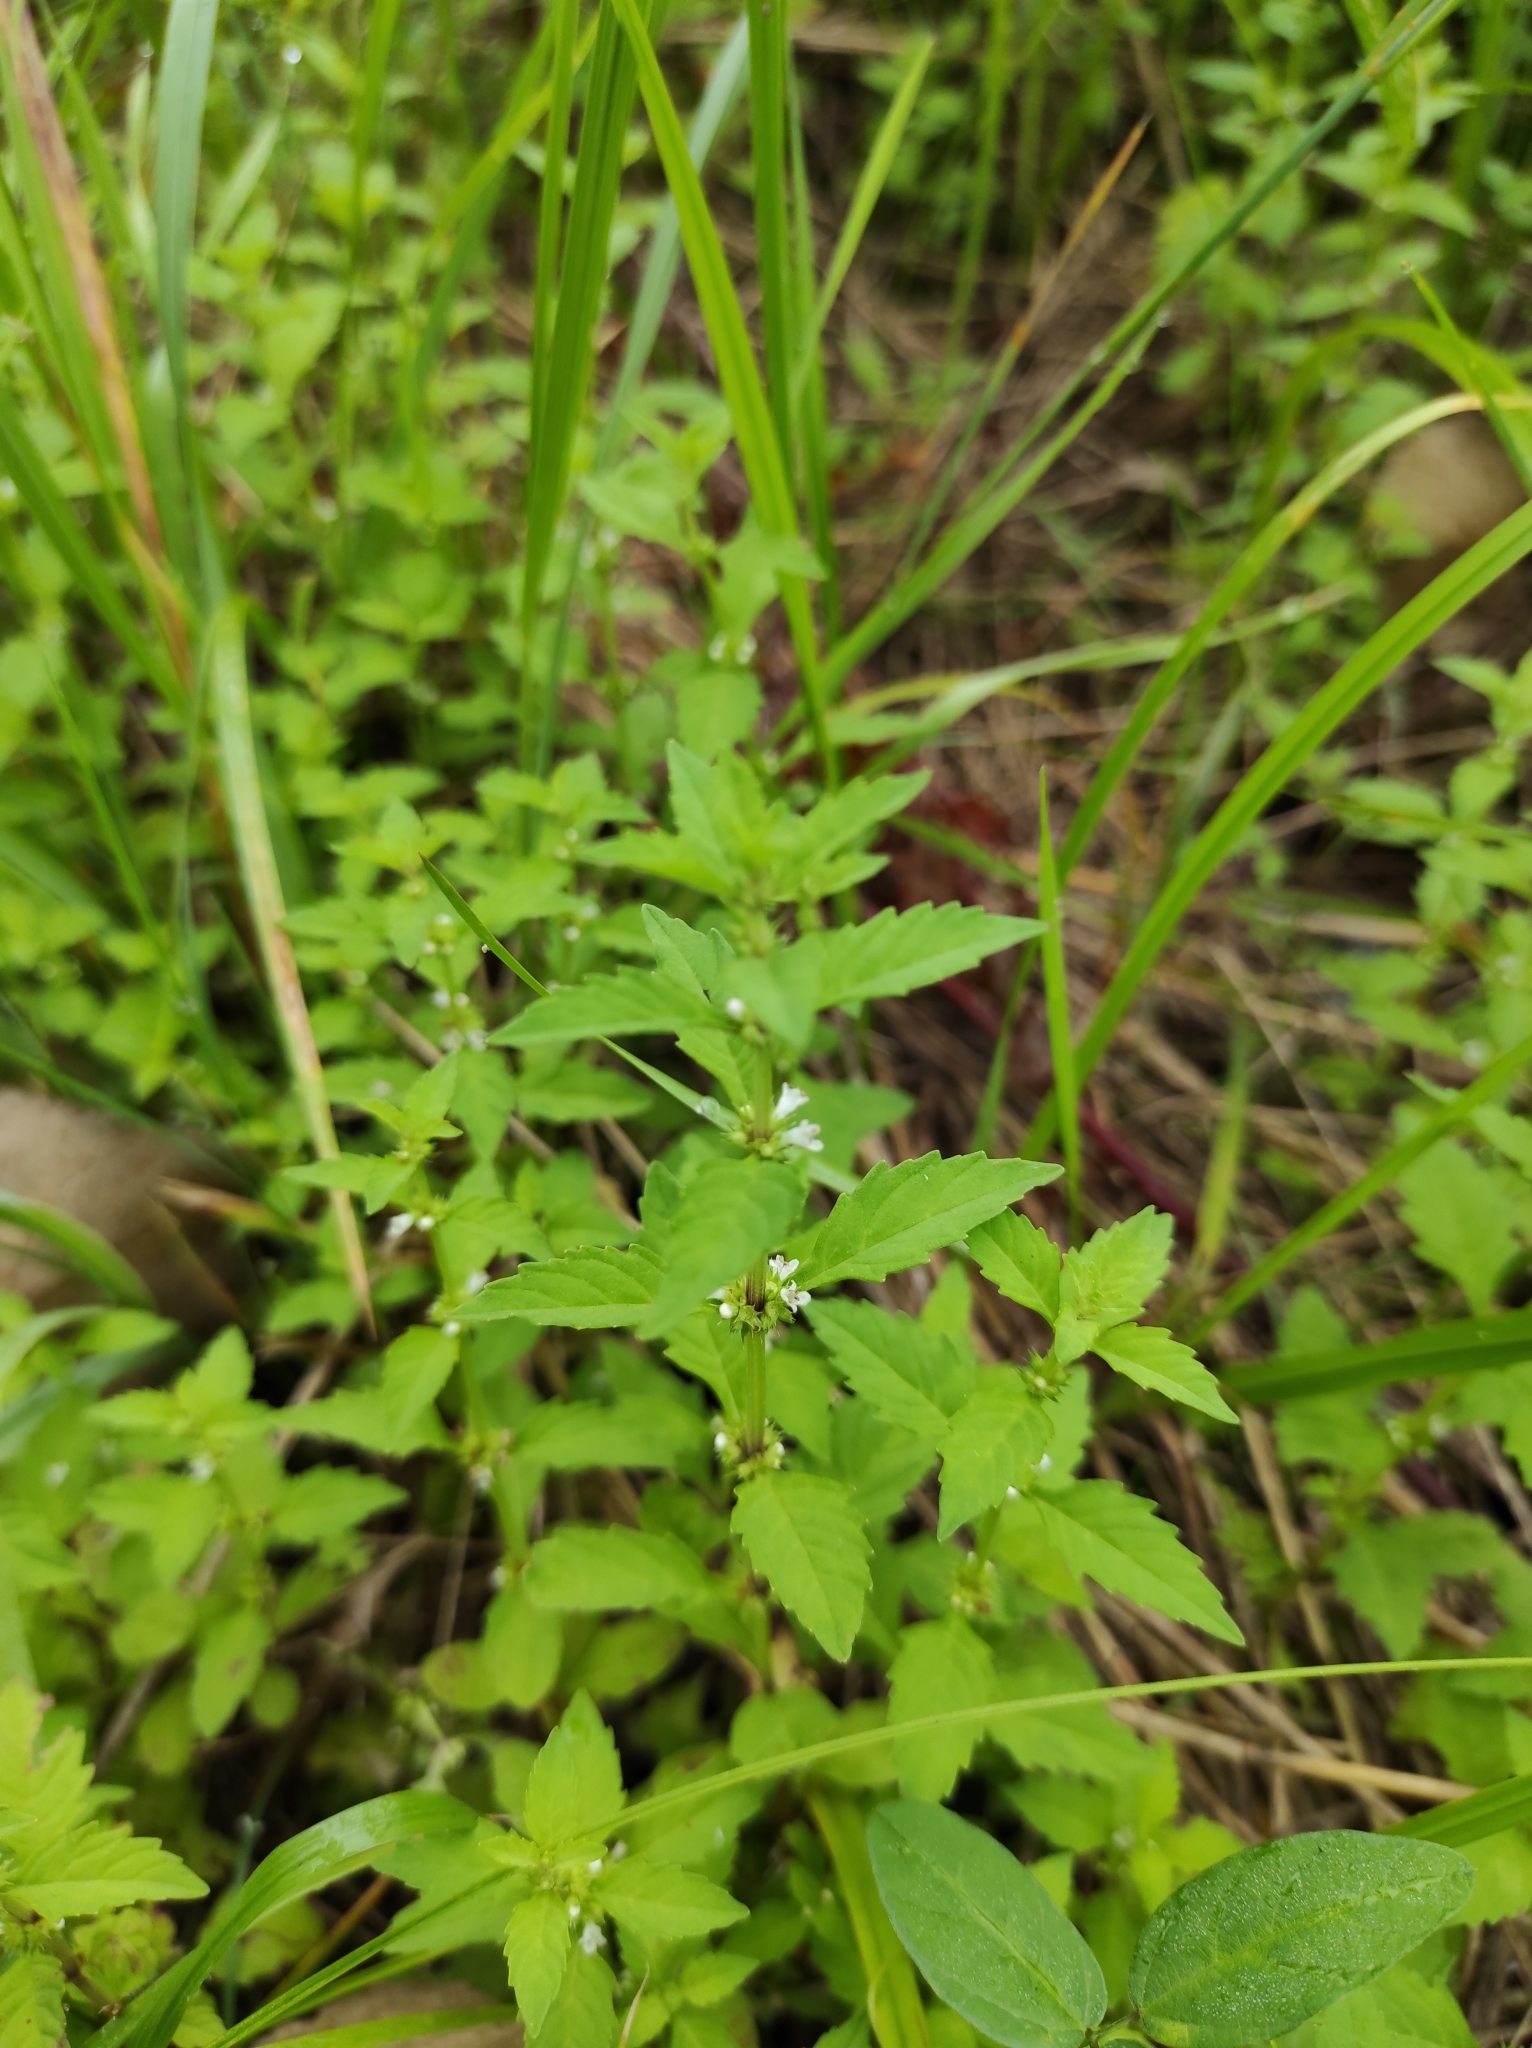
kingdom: Plantae
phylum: Tracheophyta
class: Magnoliopsida
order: Lamiales
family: Lamiaceae
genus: Lycopus
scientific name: Lycopus lucidus
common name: Shiny bugleweed
